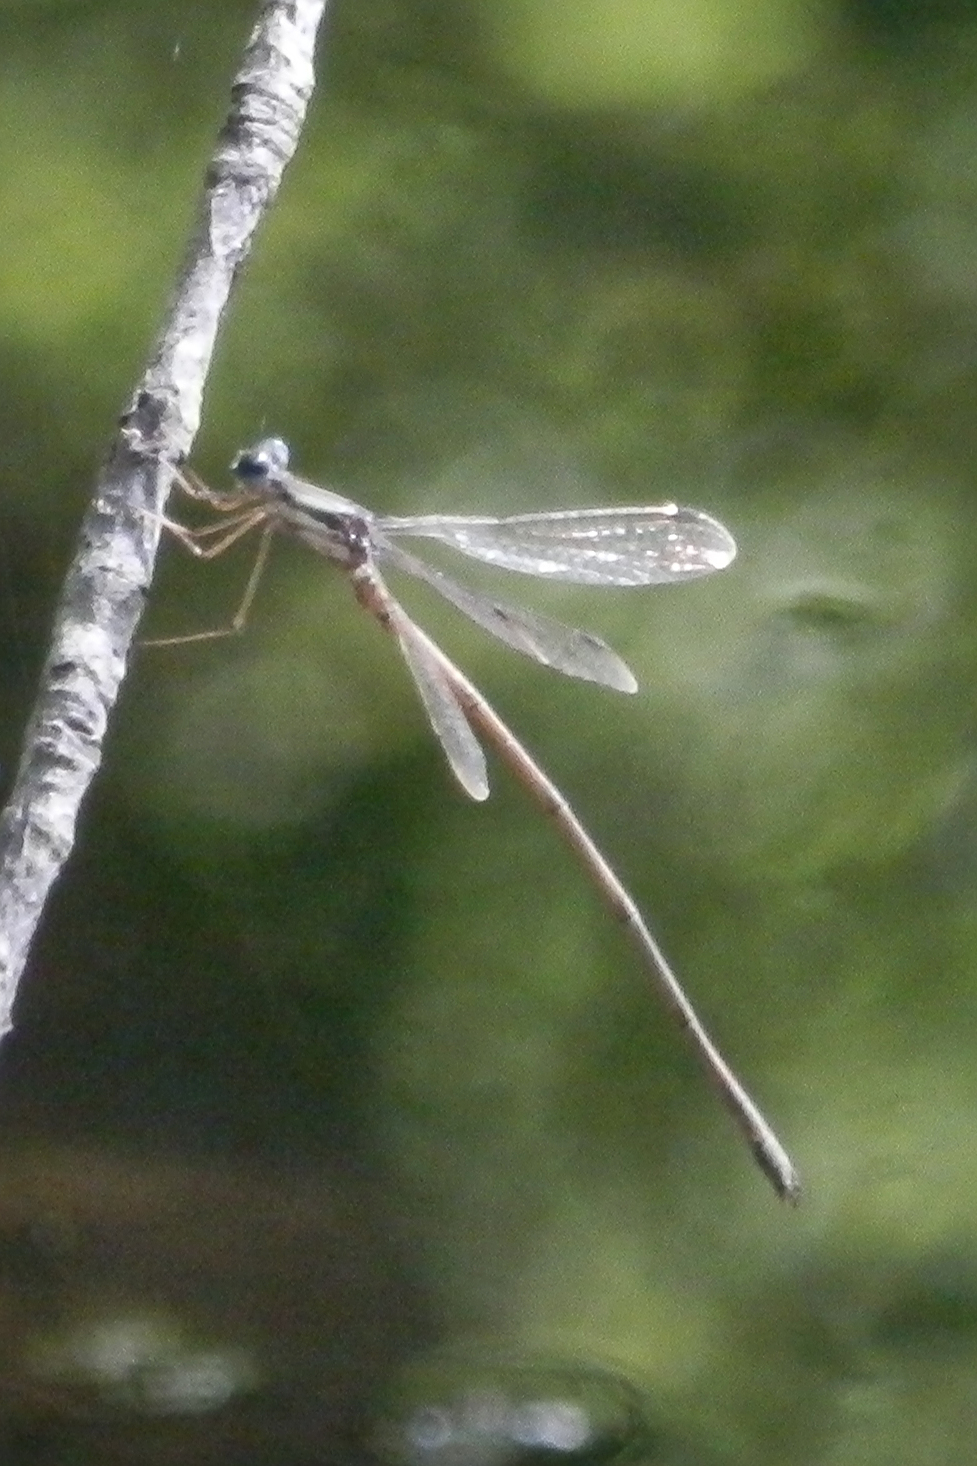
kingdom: Animalia
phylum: Arthropoda
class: Insecta
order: Odonata
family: Lestidae
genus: Lestes
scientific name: Lestes rectangularis
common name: Slender spreadwing
